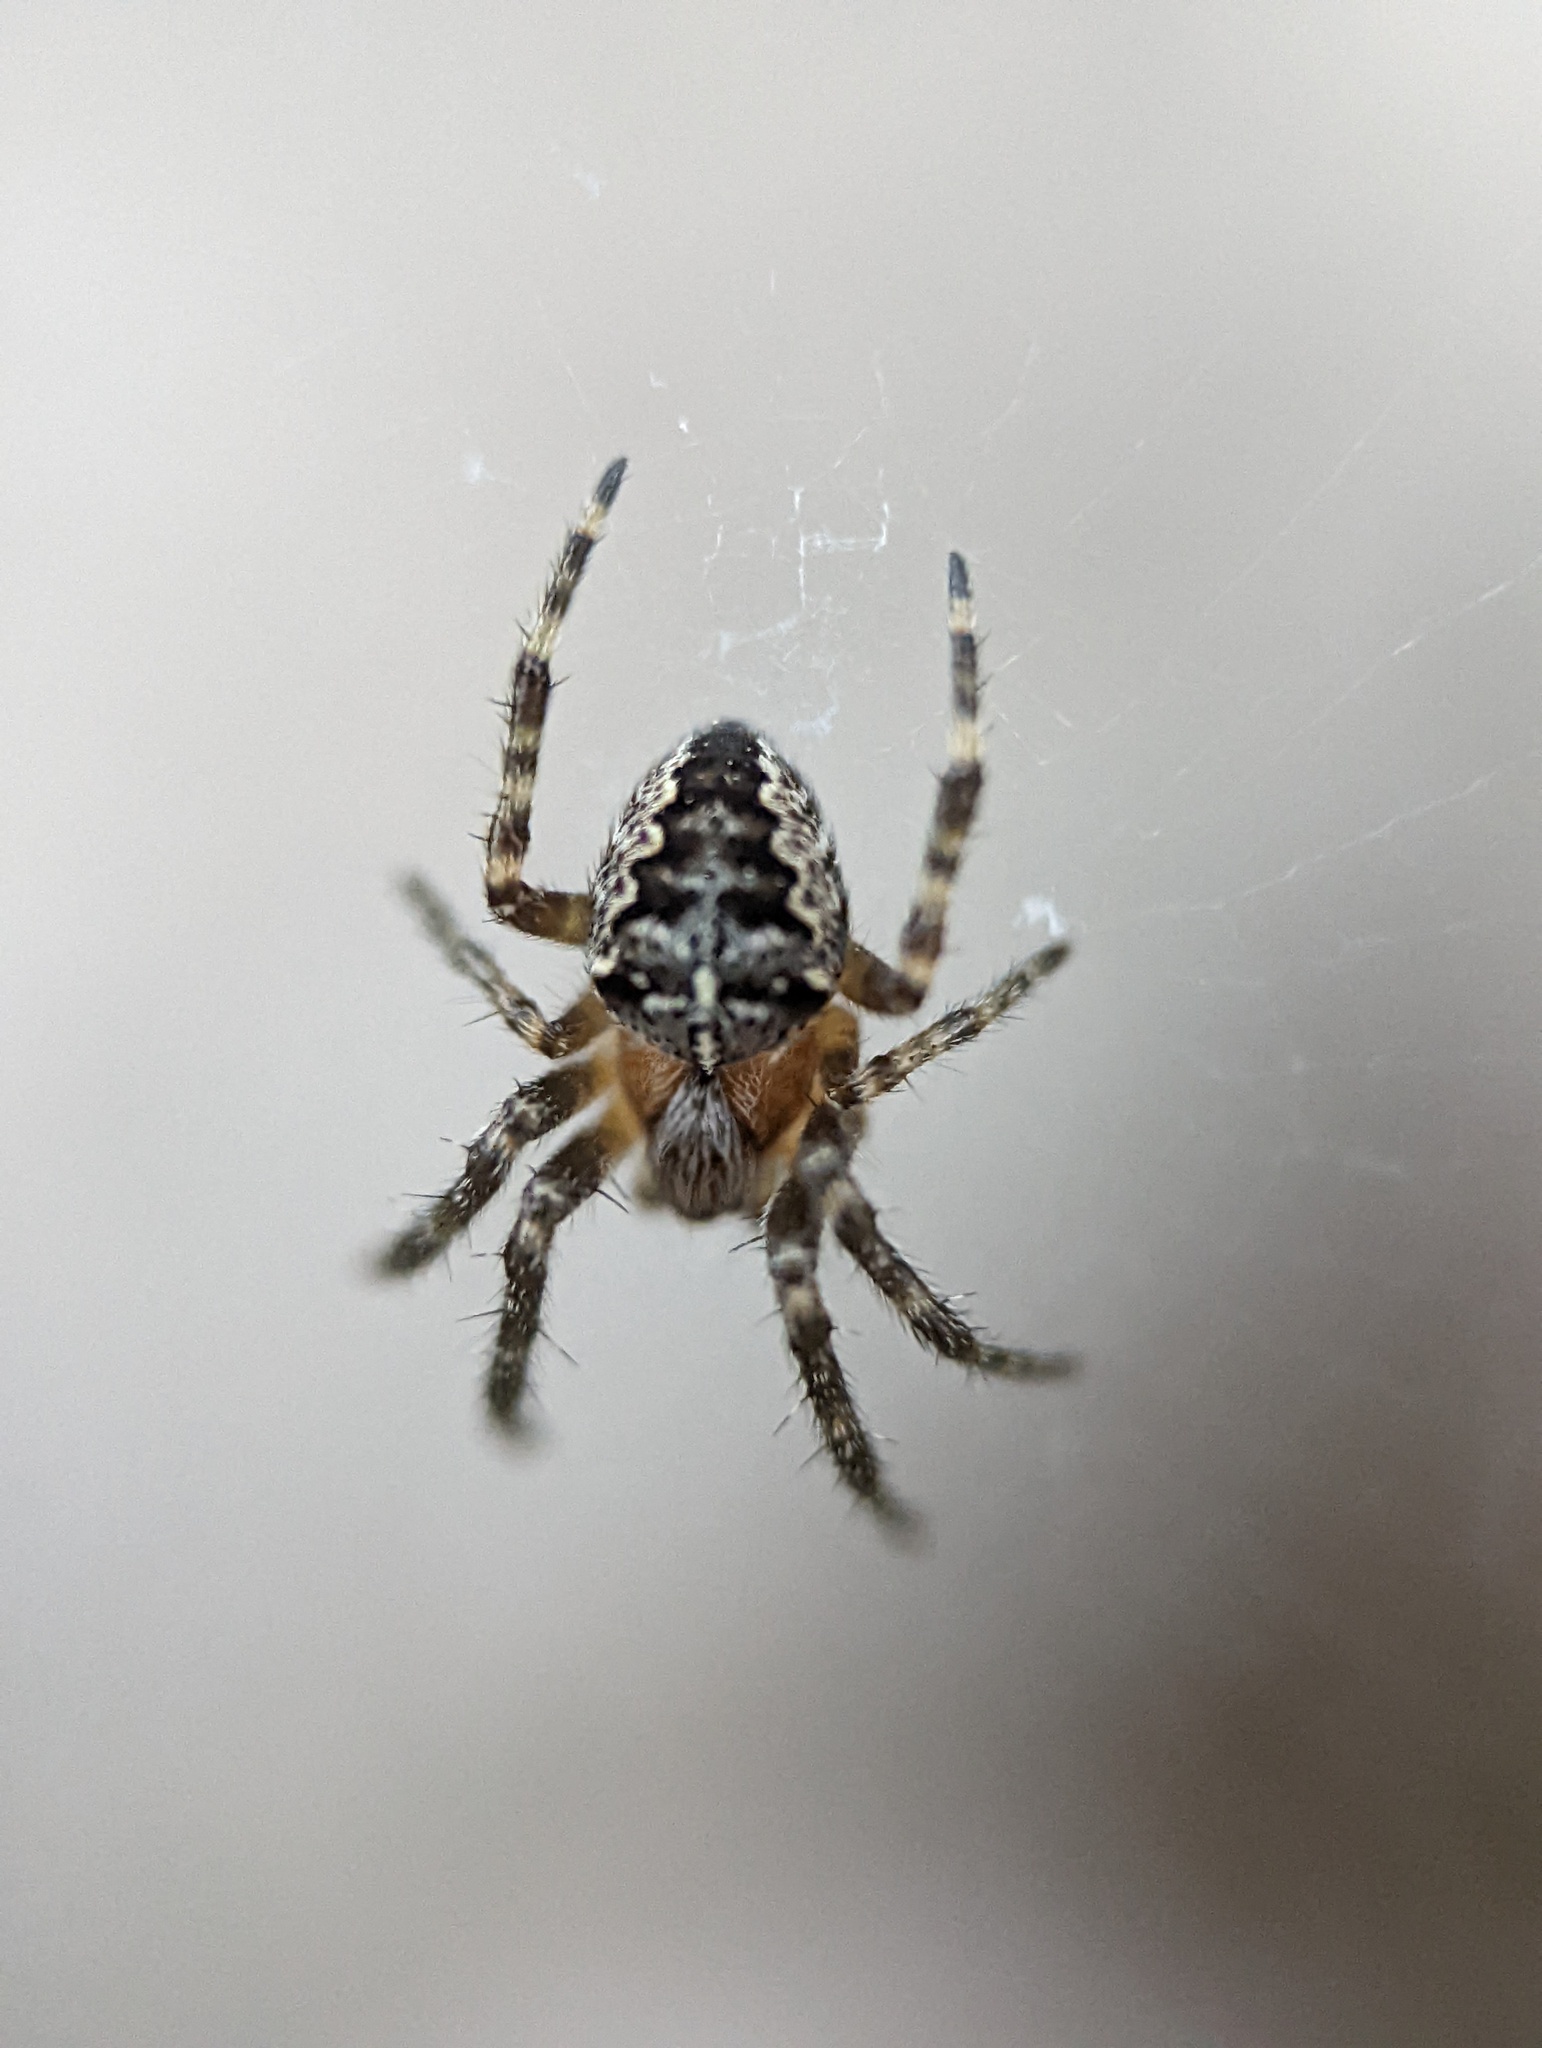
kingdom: Animalia
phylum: Arthropoda
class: Arachnida
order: Araneae
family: Araneidae
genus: Araneus
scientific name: Araneus diadematus
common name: Cross orbweaver
